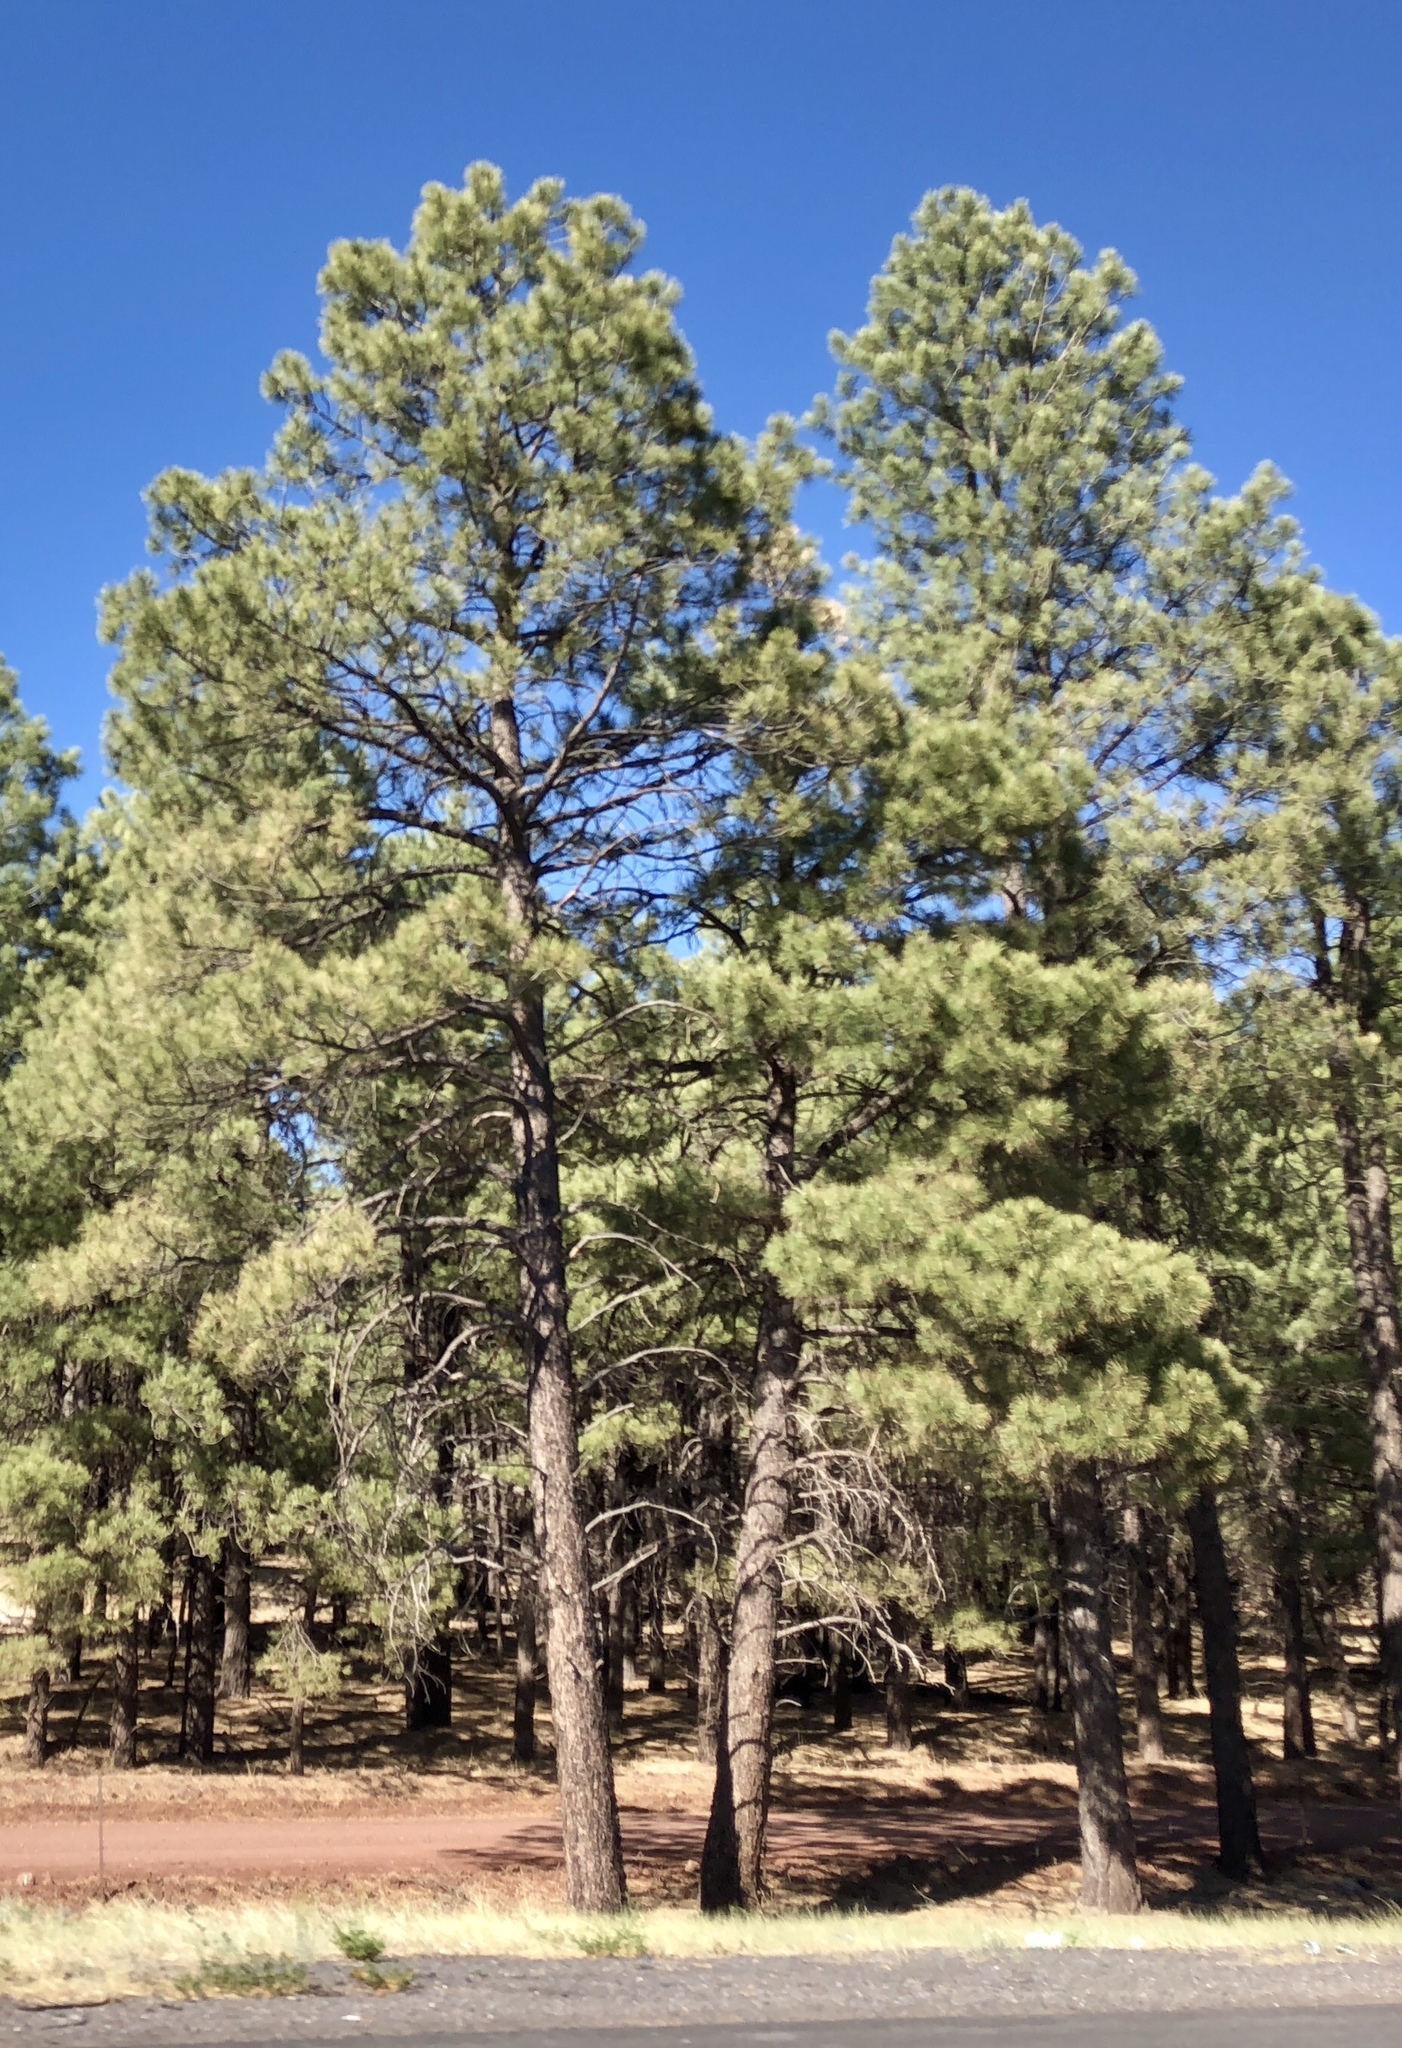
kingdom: Plantae
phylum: Tracheophyta
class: Pinopsida
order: Pinales
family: Pinaceae
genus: Pinus
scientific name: Pinus ponderosa
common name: Western yellow-pine
